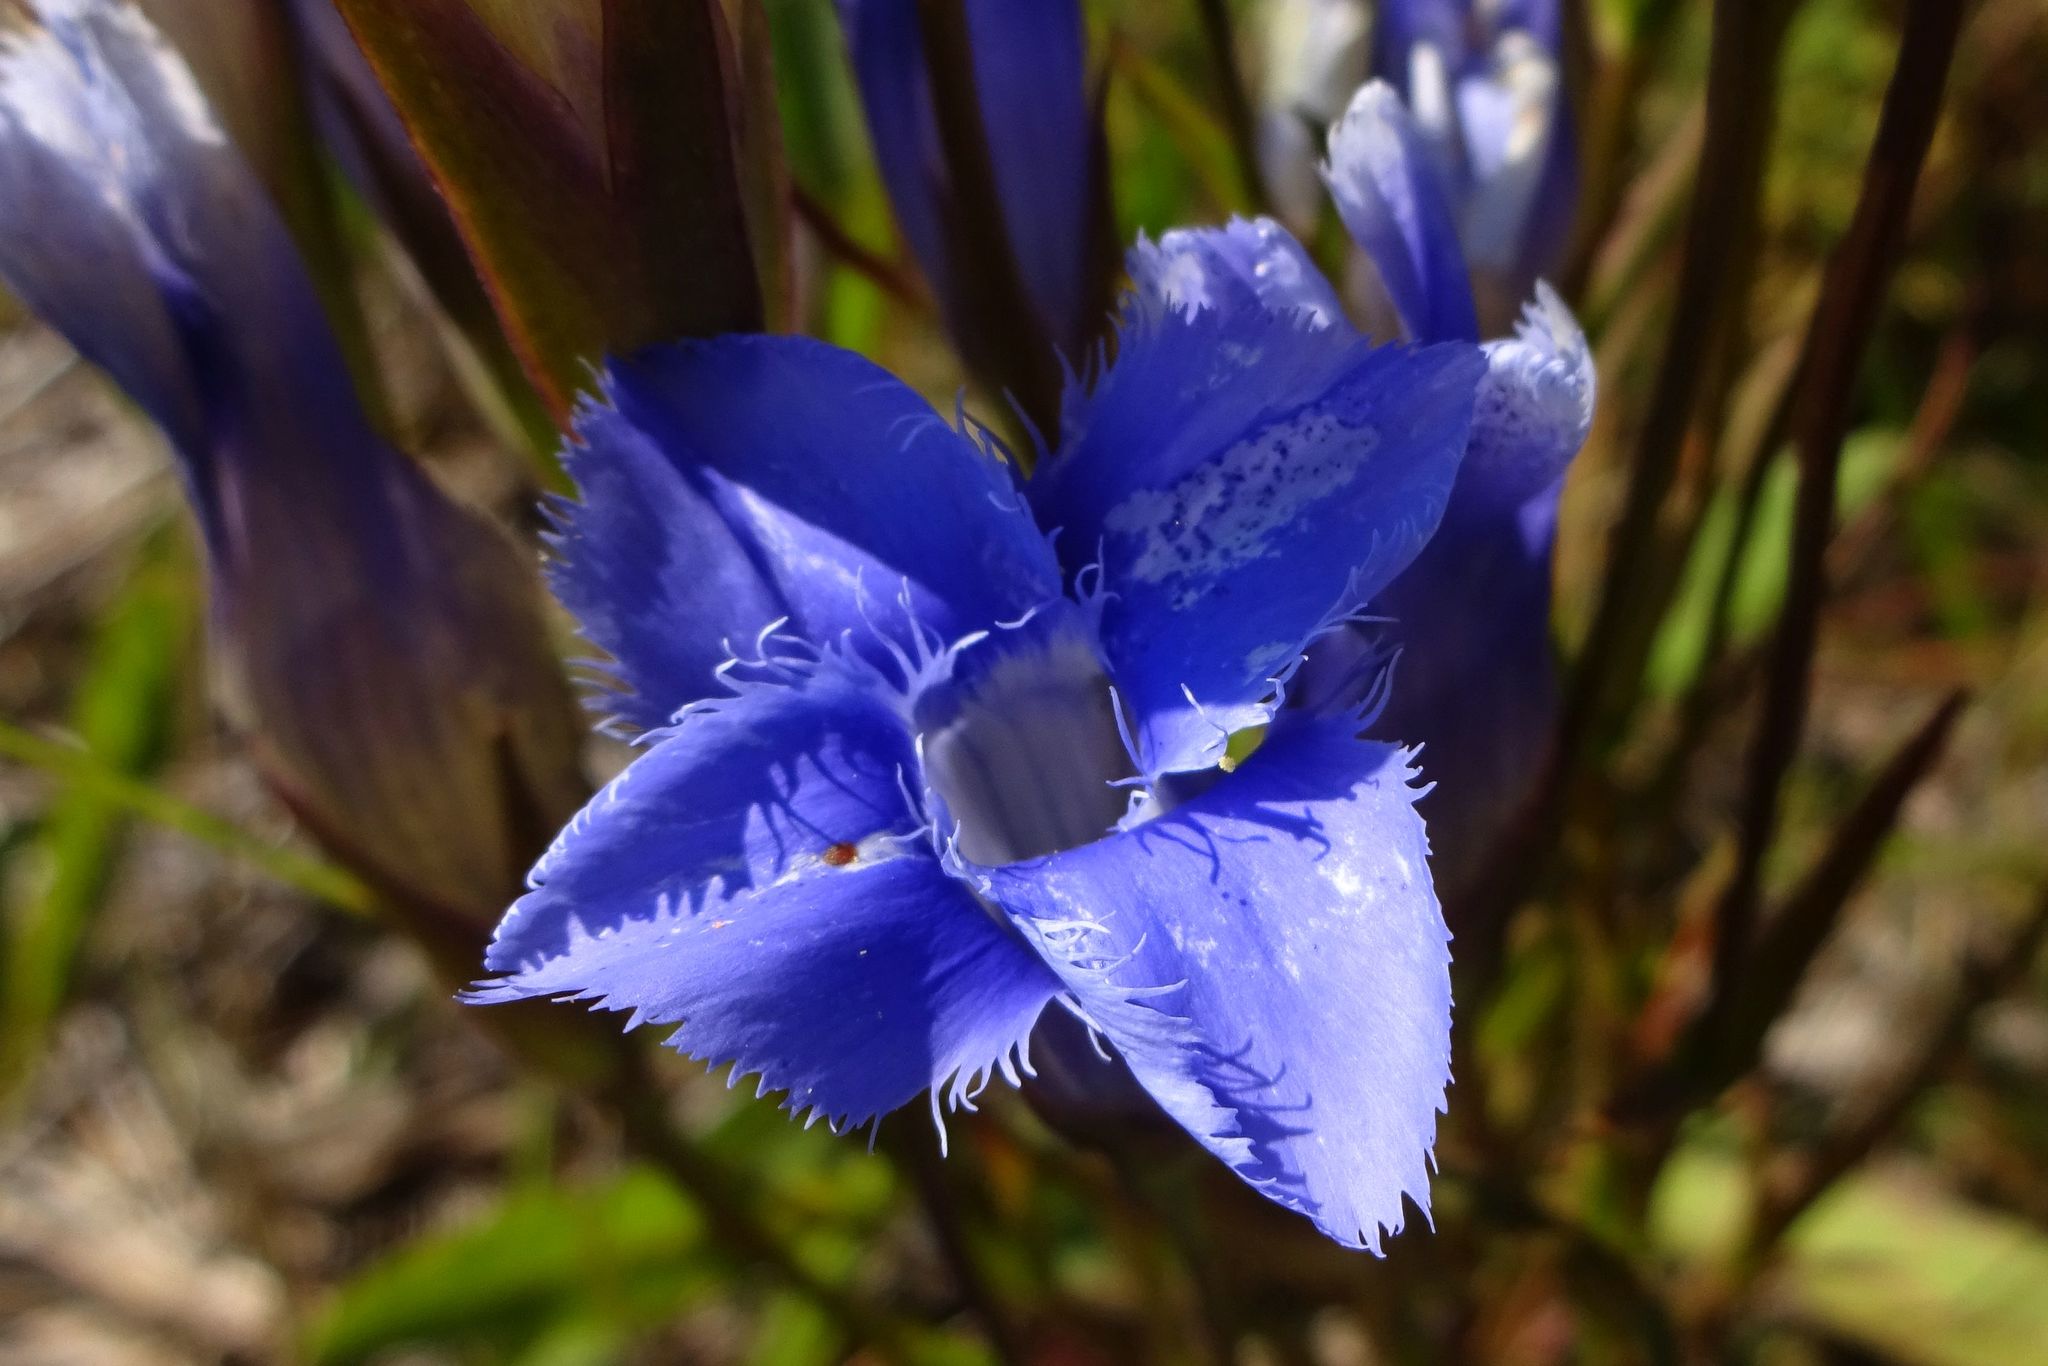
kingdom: Plantae
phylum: Tracheophyta
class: Magnoliopsida
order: Gentianales
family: Gentianaceae
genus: Gentianopsis
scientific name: Gentianopsis virgata
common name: Lesser fringed-gentian
